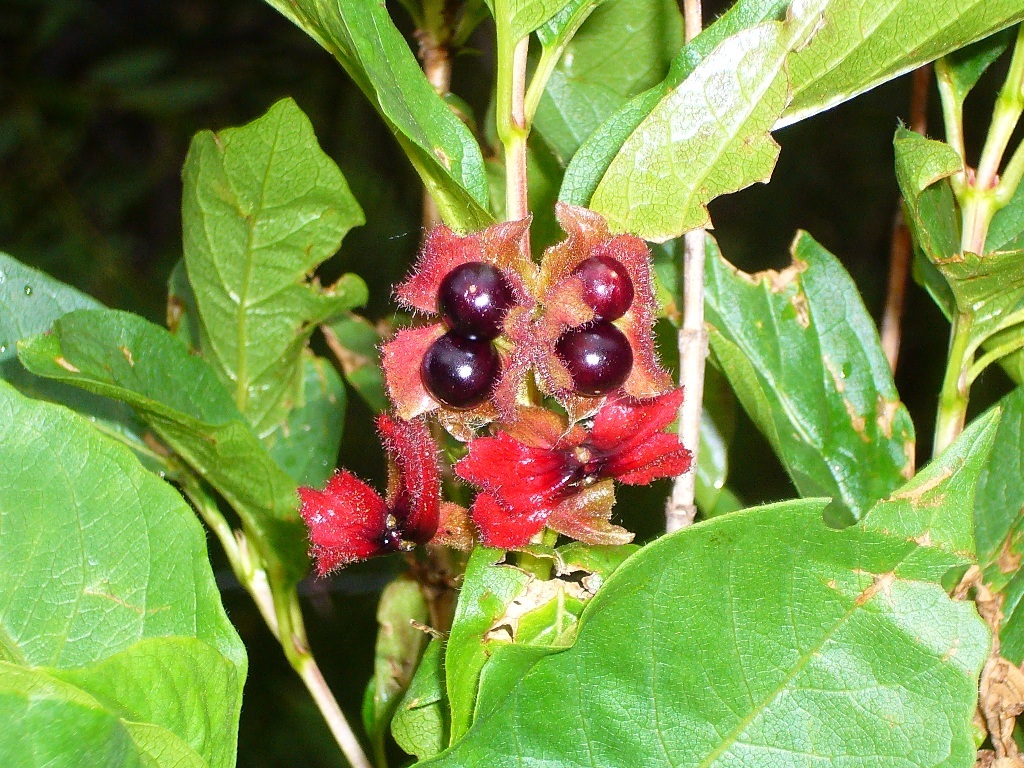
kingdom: Plantae
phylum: Tracheophyta
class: Magnoliopsida
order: Dipsacales
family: Caprifoliaceae
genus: Lonicera
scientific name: Lonicera involucrata
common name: Californian honeysuckle
